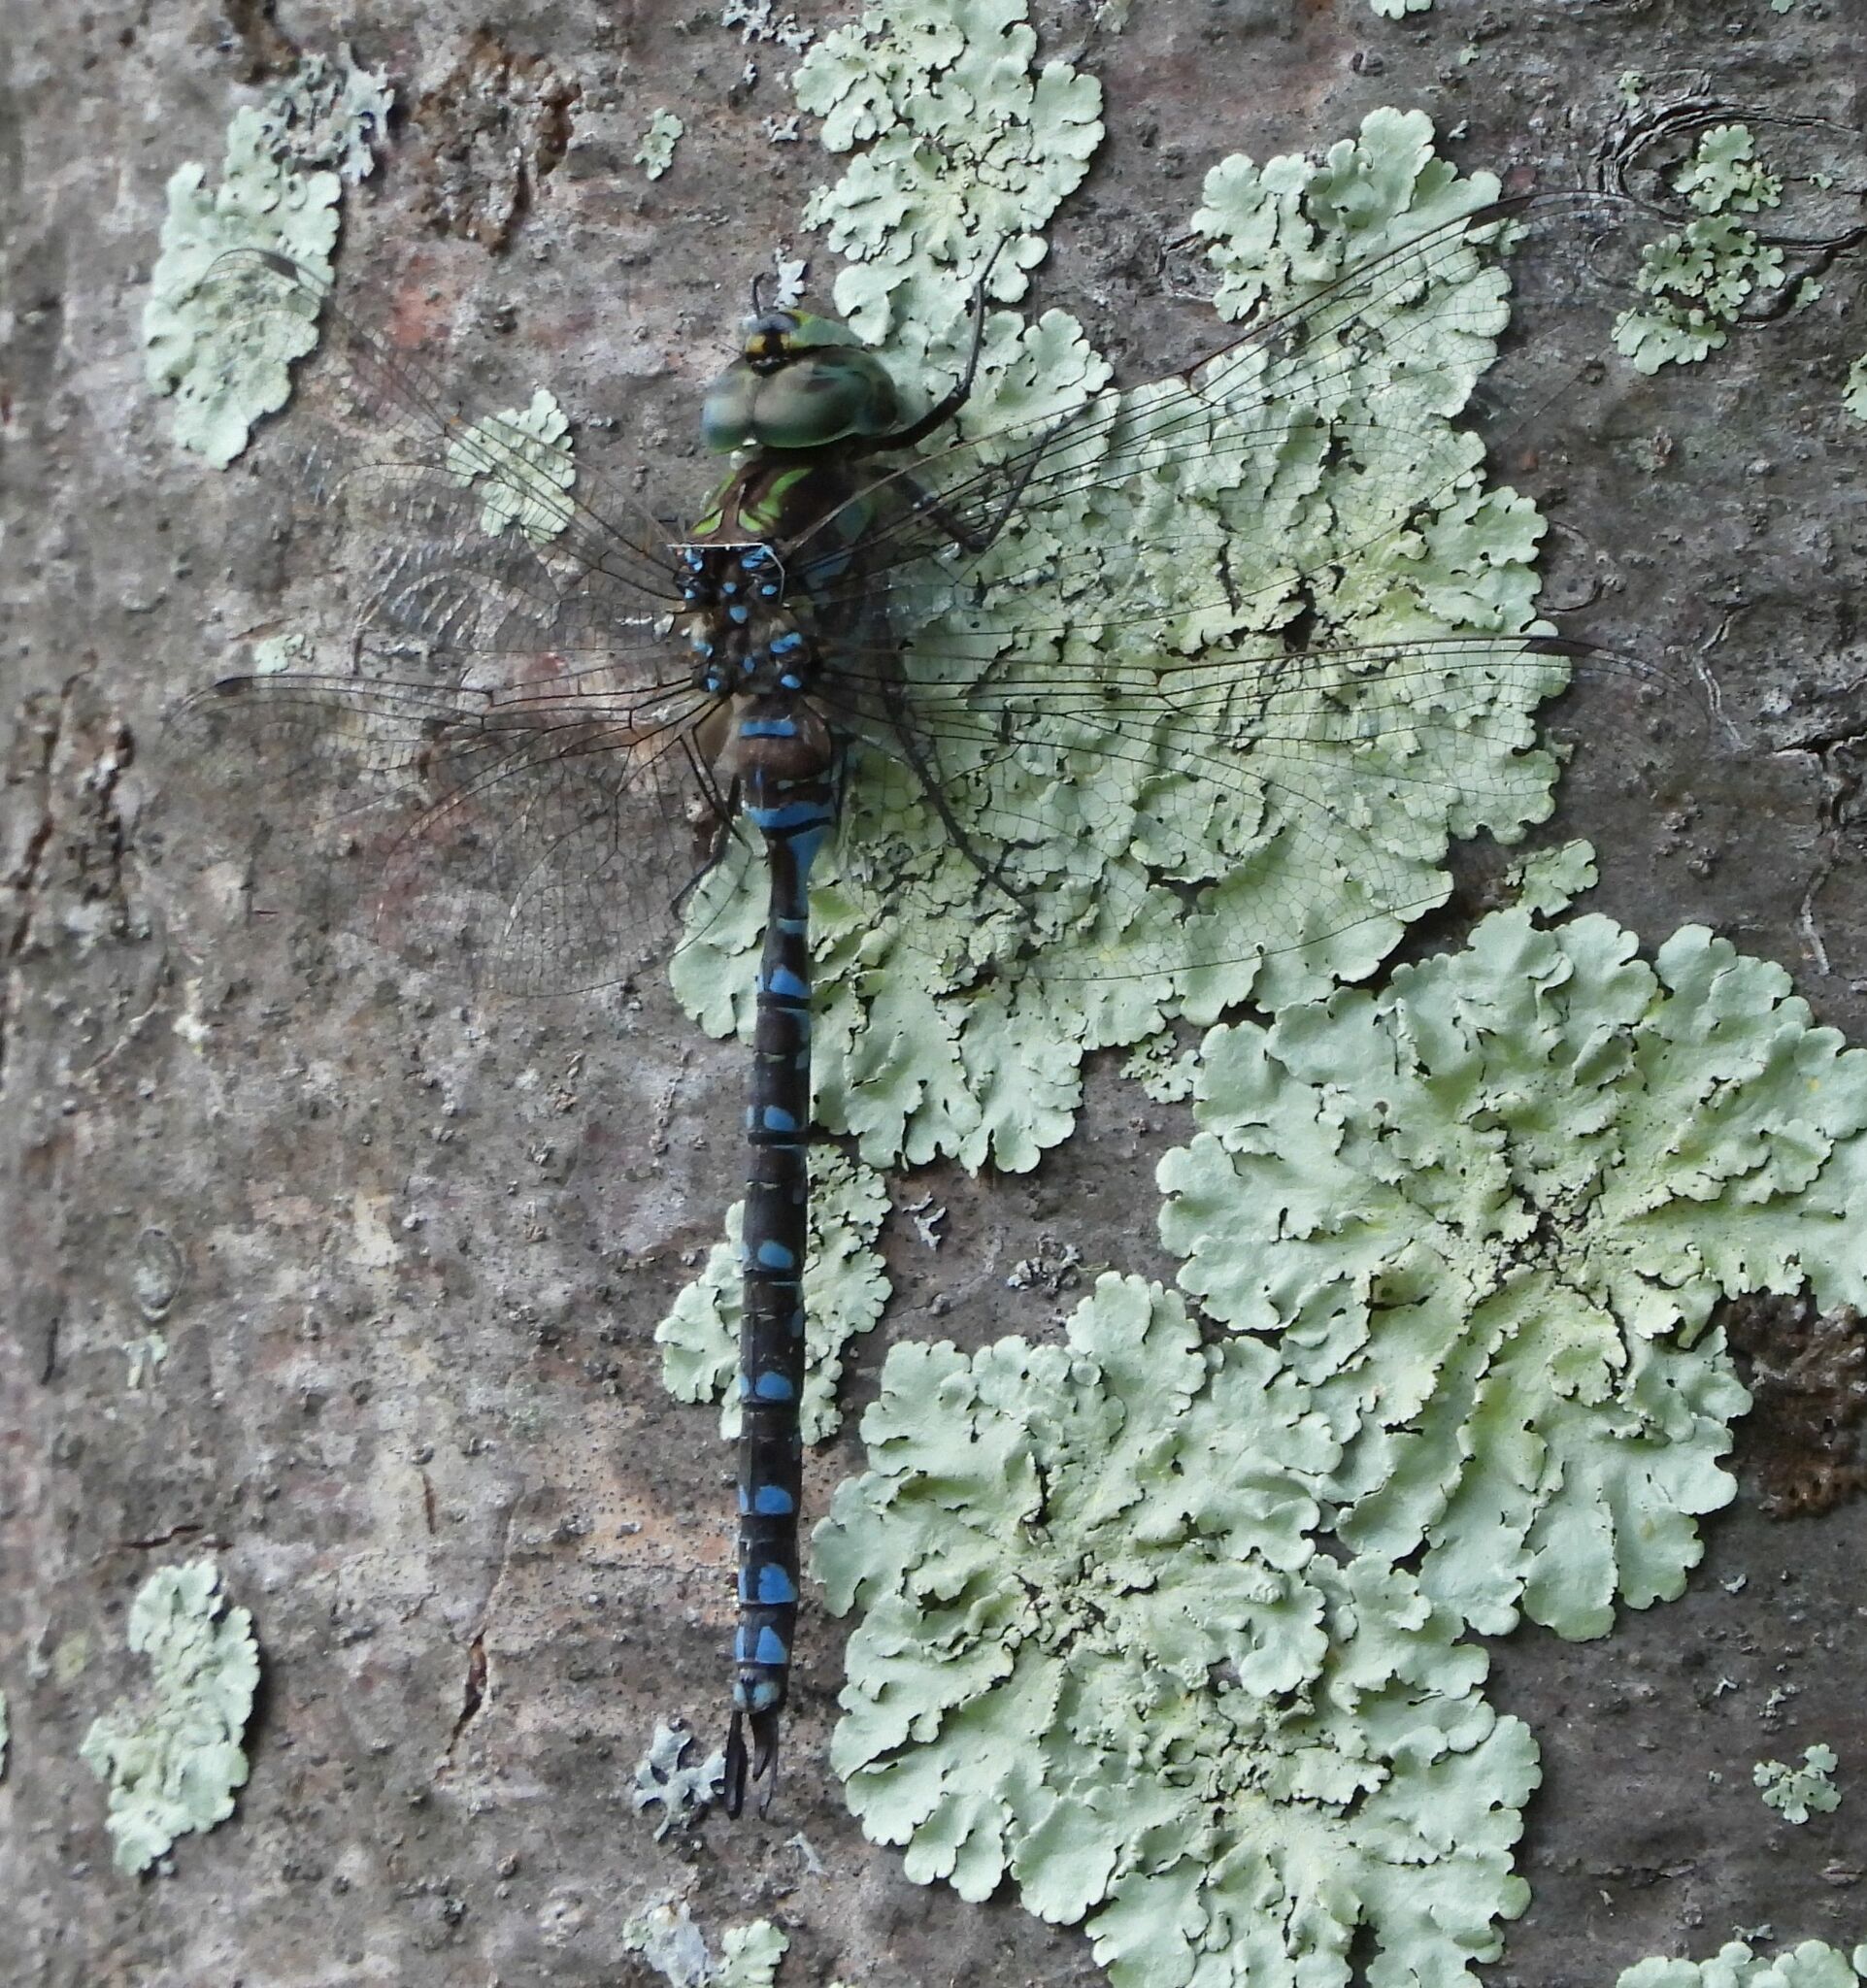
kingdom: Animalia
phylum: Arthropoda
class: Insecta
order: Odonata
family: Aeshnidae
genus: Aeshna
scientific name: Aeshna canadensis
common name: Canada darner
